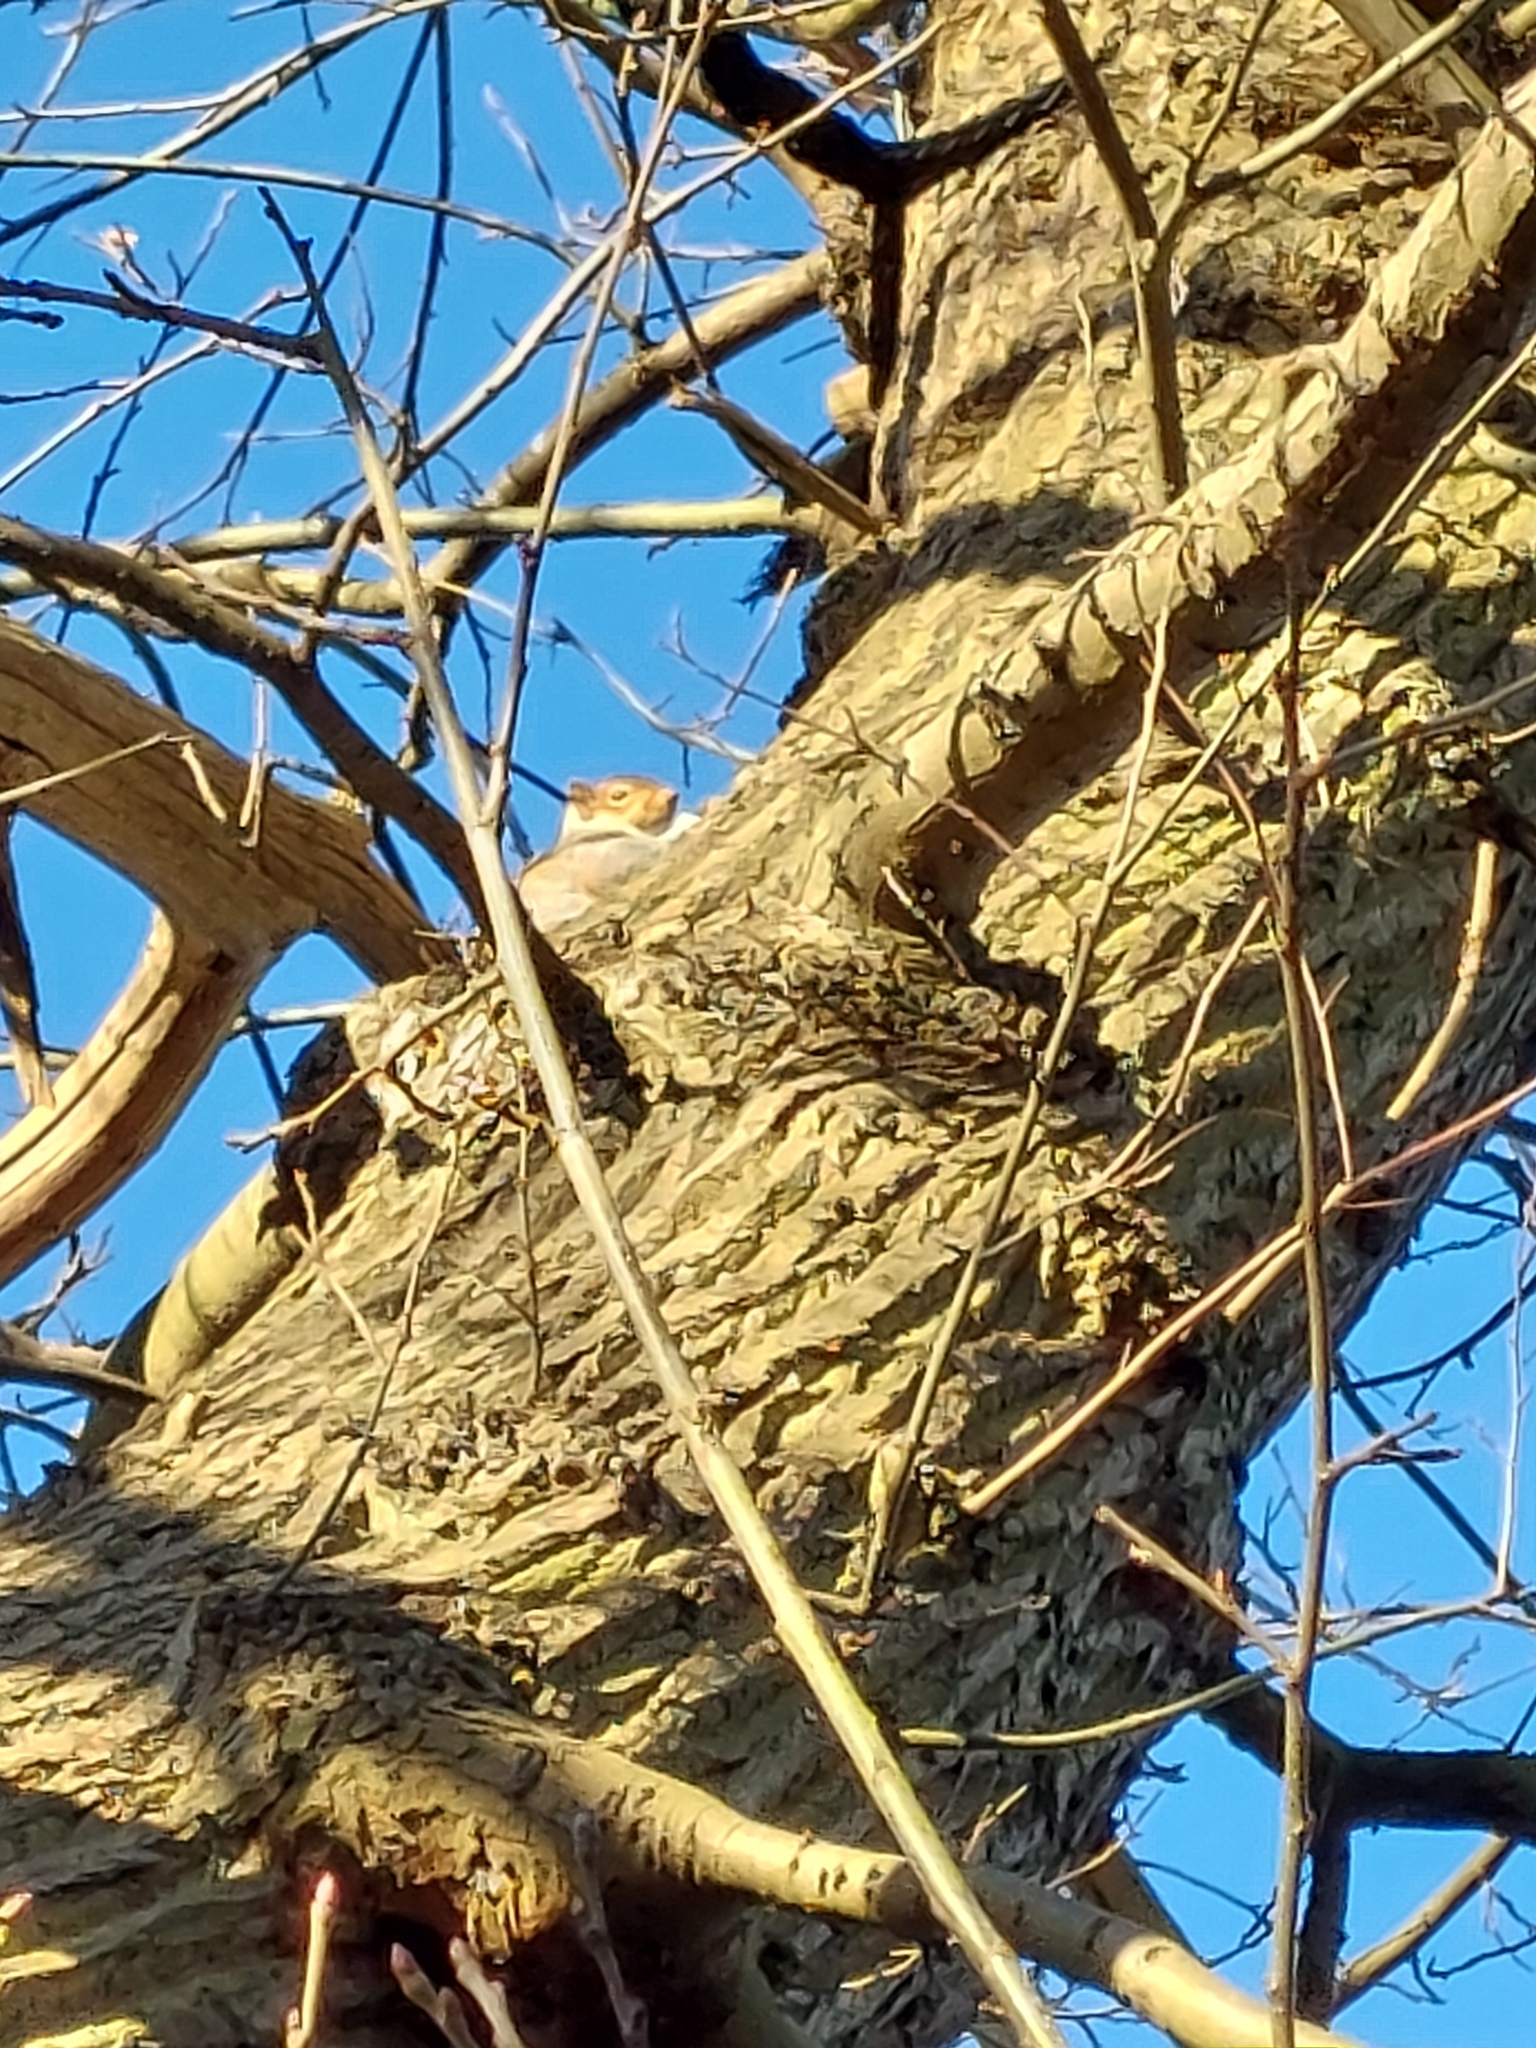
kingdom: Animalia
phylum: Chordata
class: Mammalia
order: Rodentia
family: Sciuridae
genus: Sciurus
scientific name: Sciurus carolinensis
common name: Eastern gray squirrel
